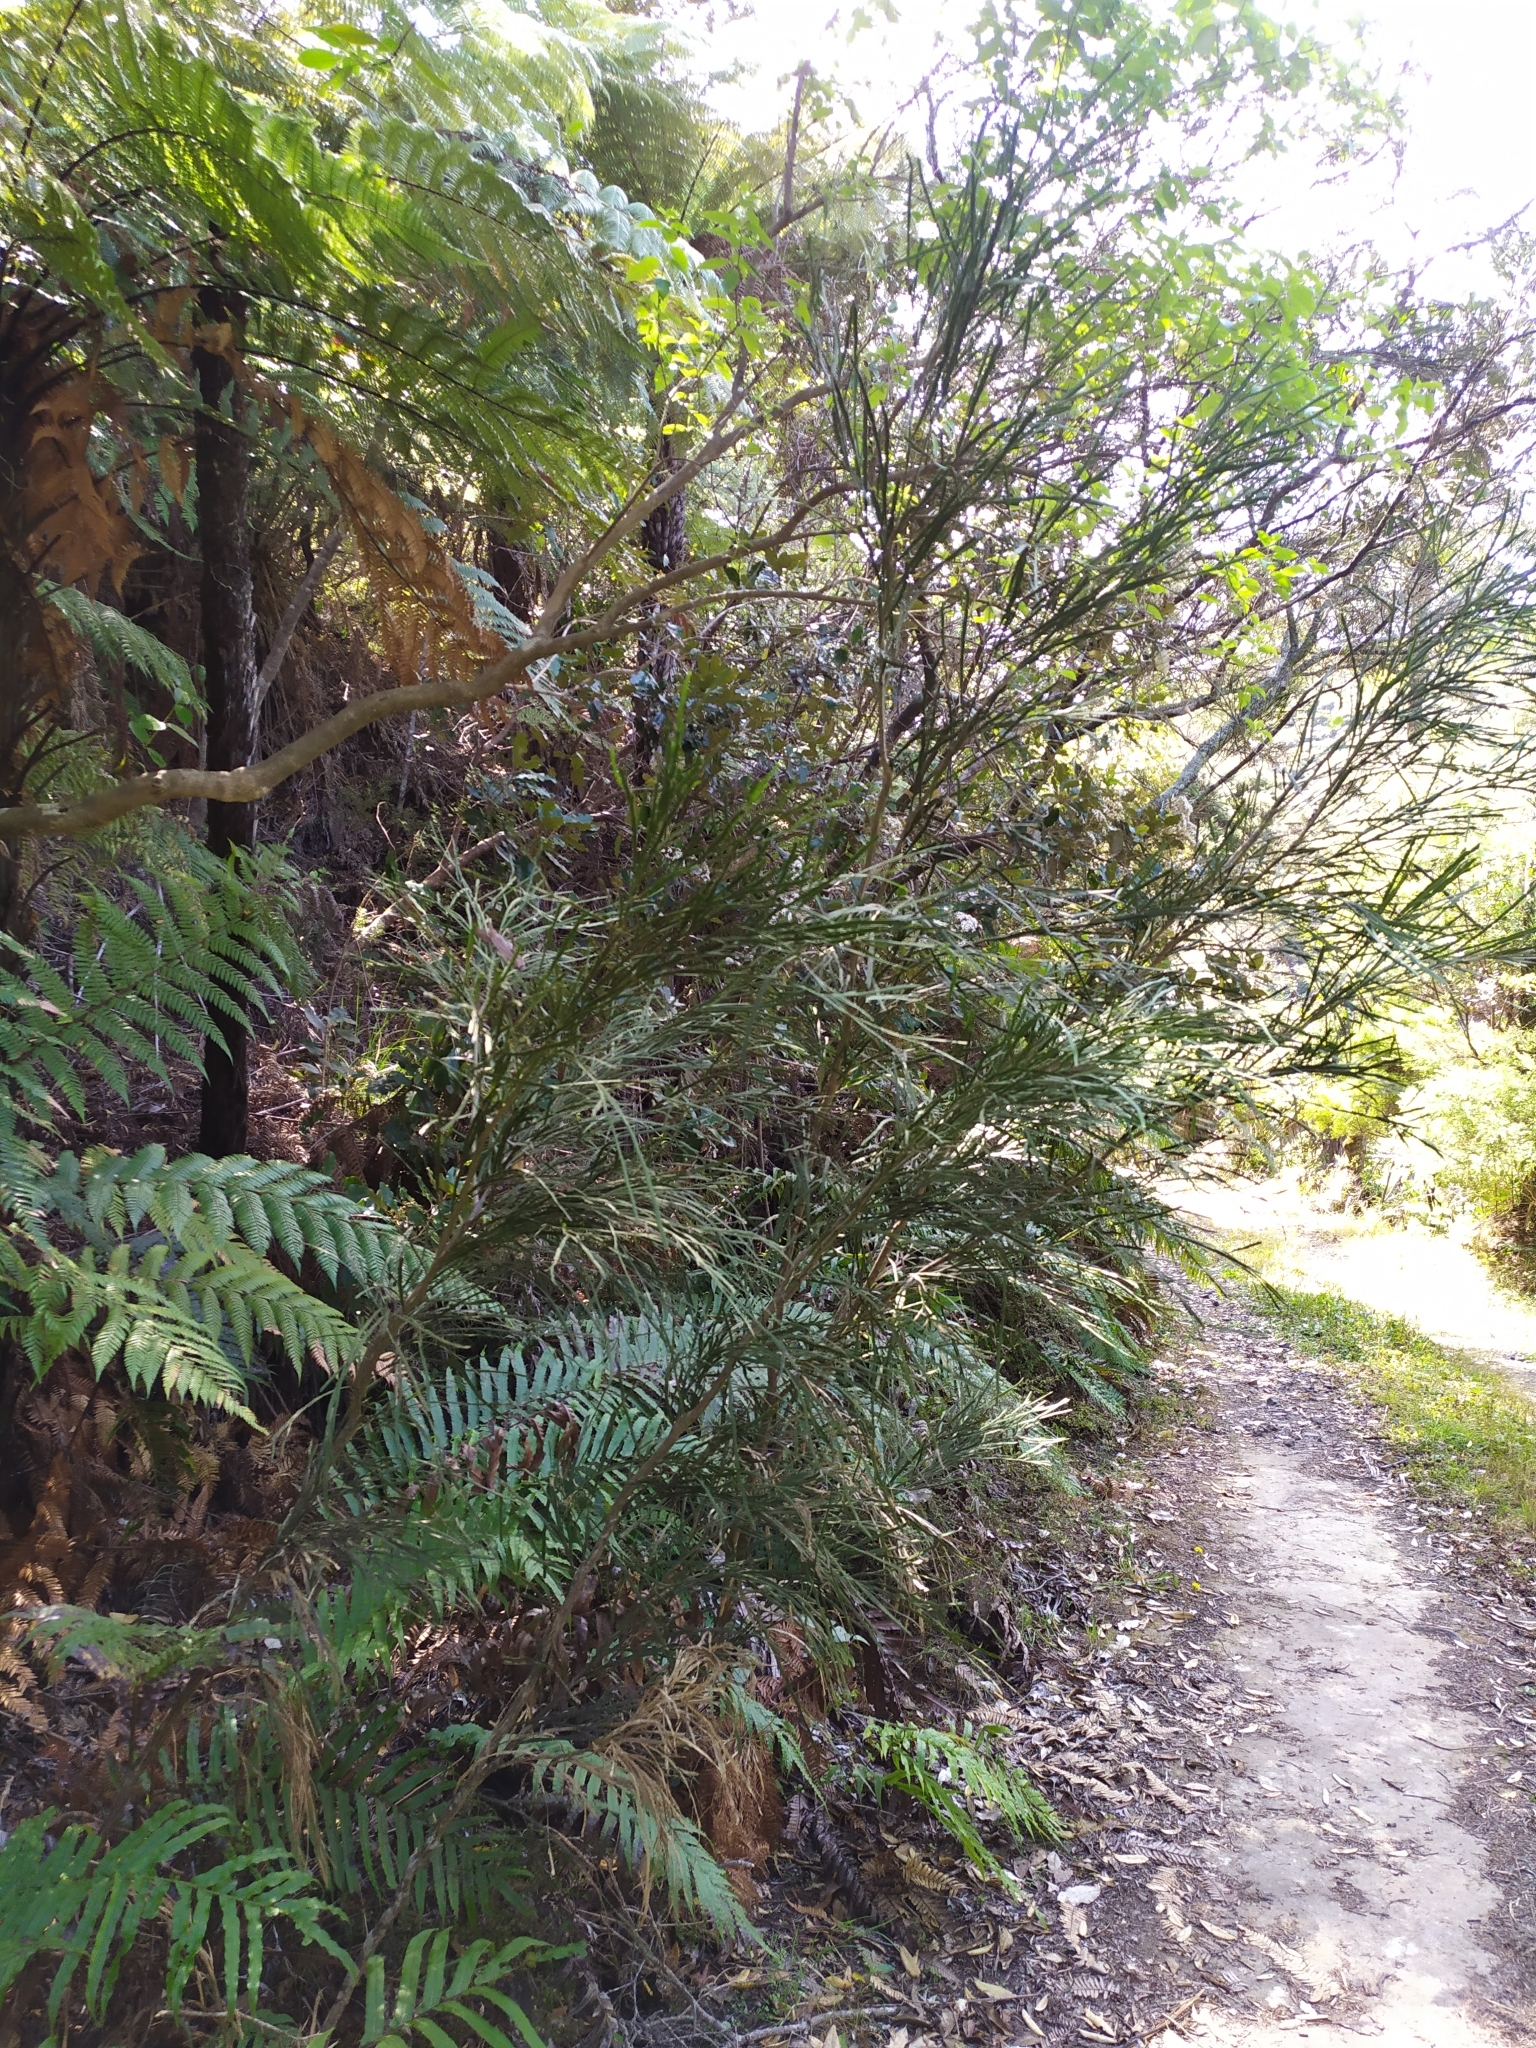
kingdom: Plantae
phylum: Tracheophyta
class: Magnoliopsida
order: Fabales
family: Fabaceae
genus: Carmichaelia
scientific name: Carmichaelia australis
